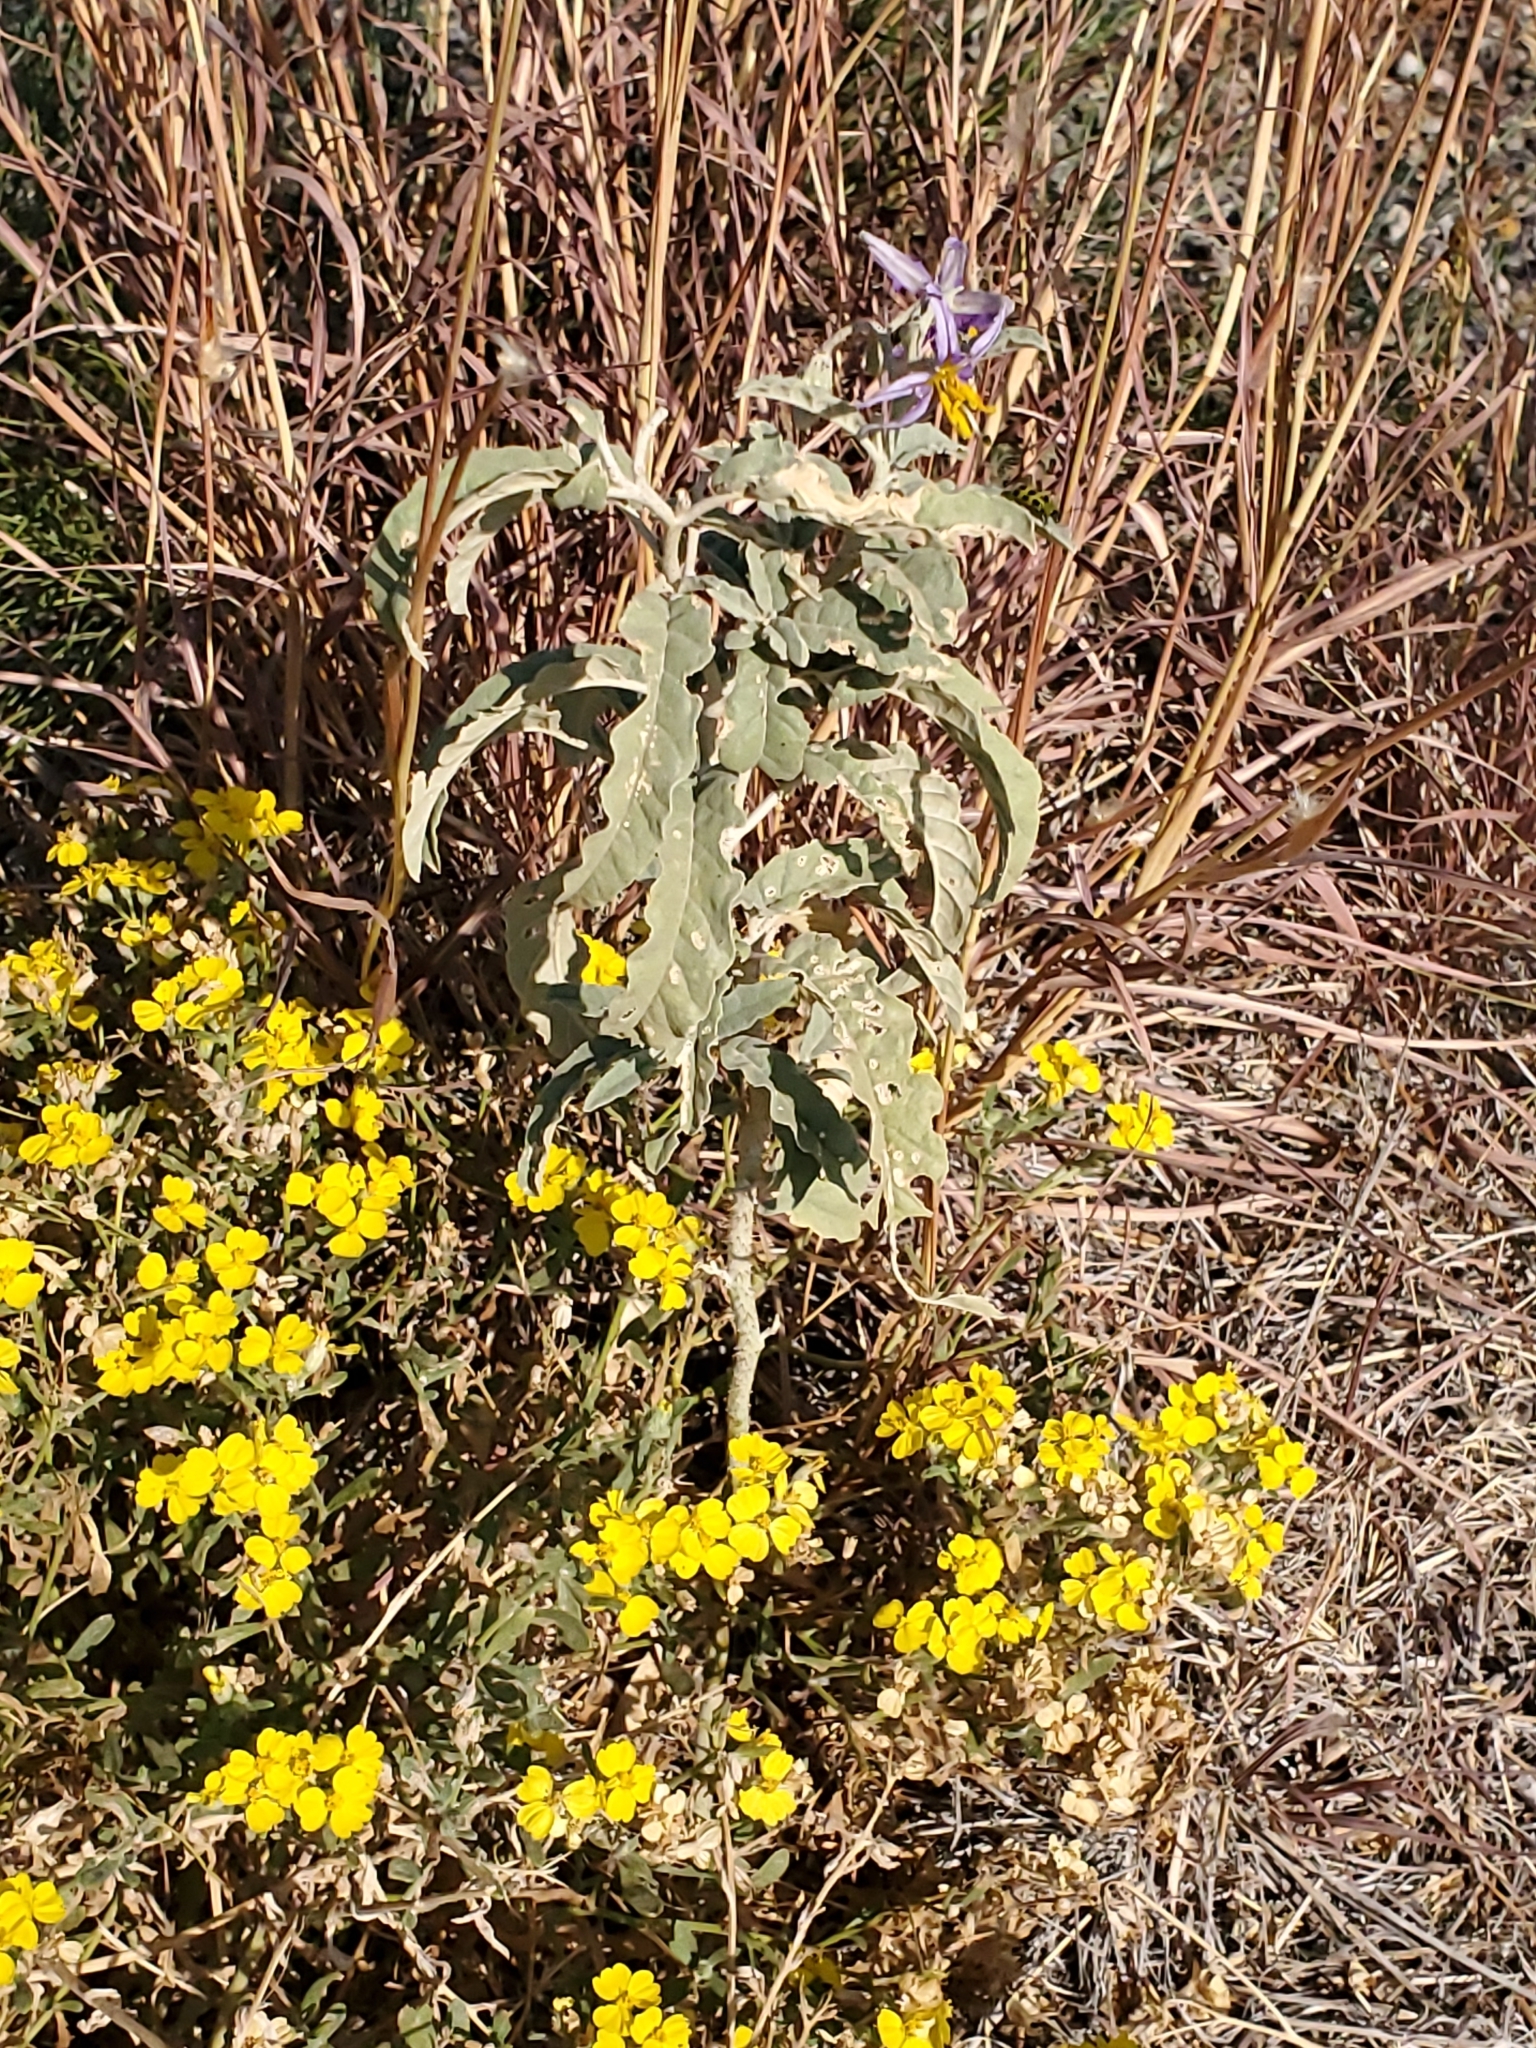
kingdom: Plantae
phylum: Tracheophyta
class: Magnoliopsida
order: Solanales
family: Solanaceae
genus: Solanum
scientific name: Solanum elaeagnifolium
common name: Silverleaf nightshade
